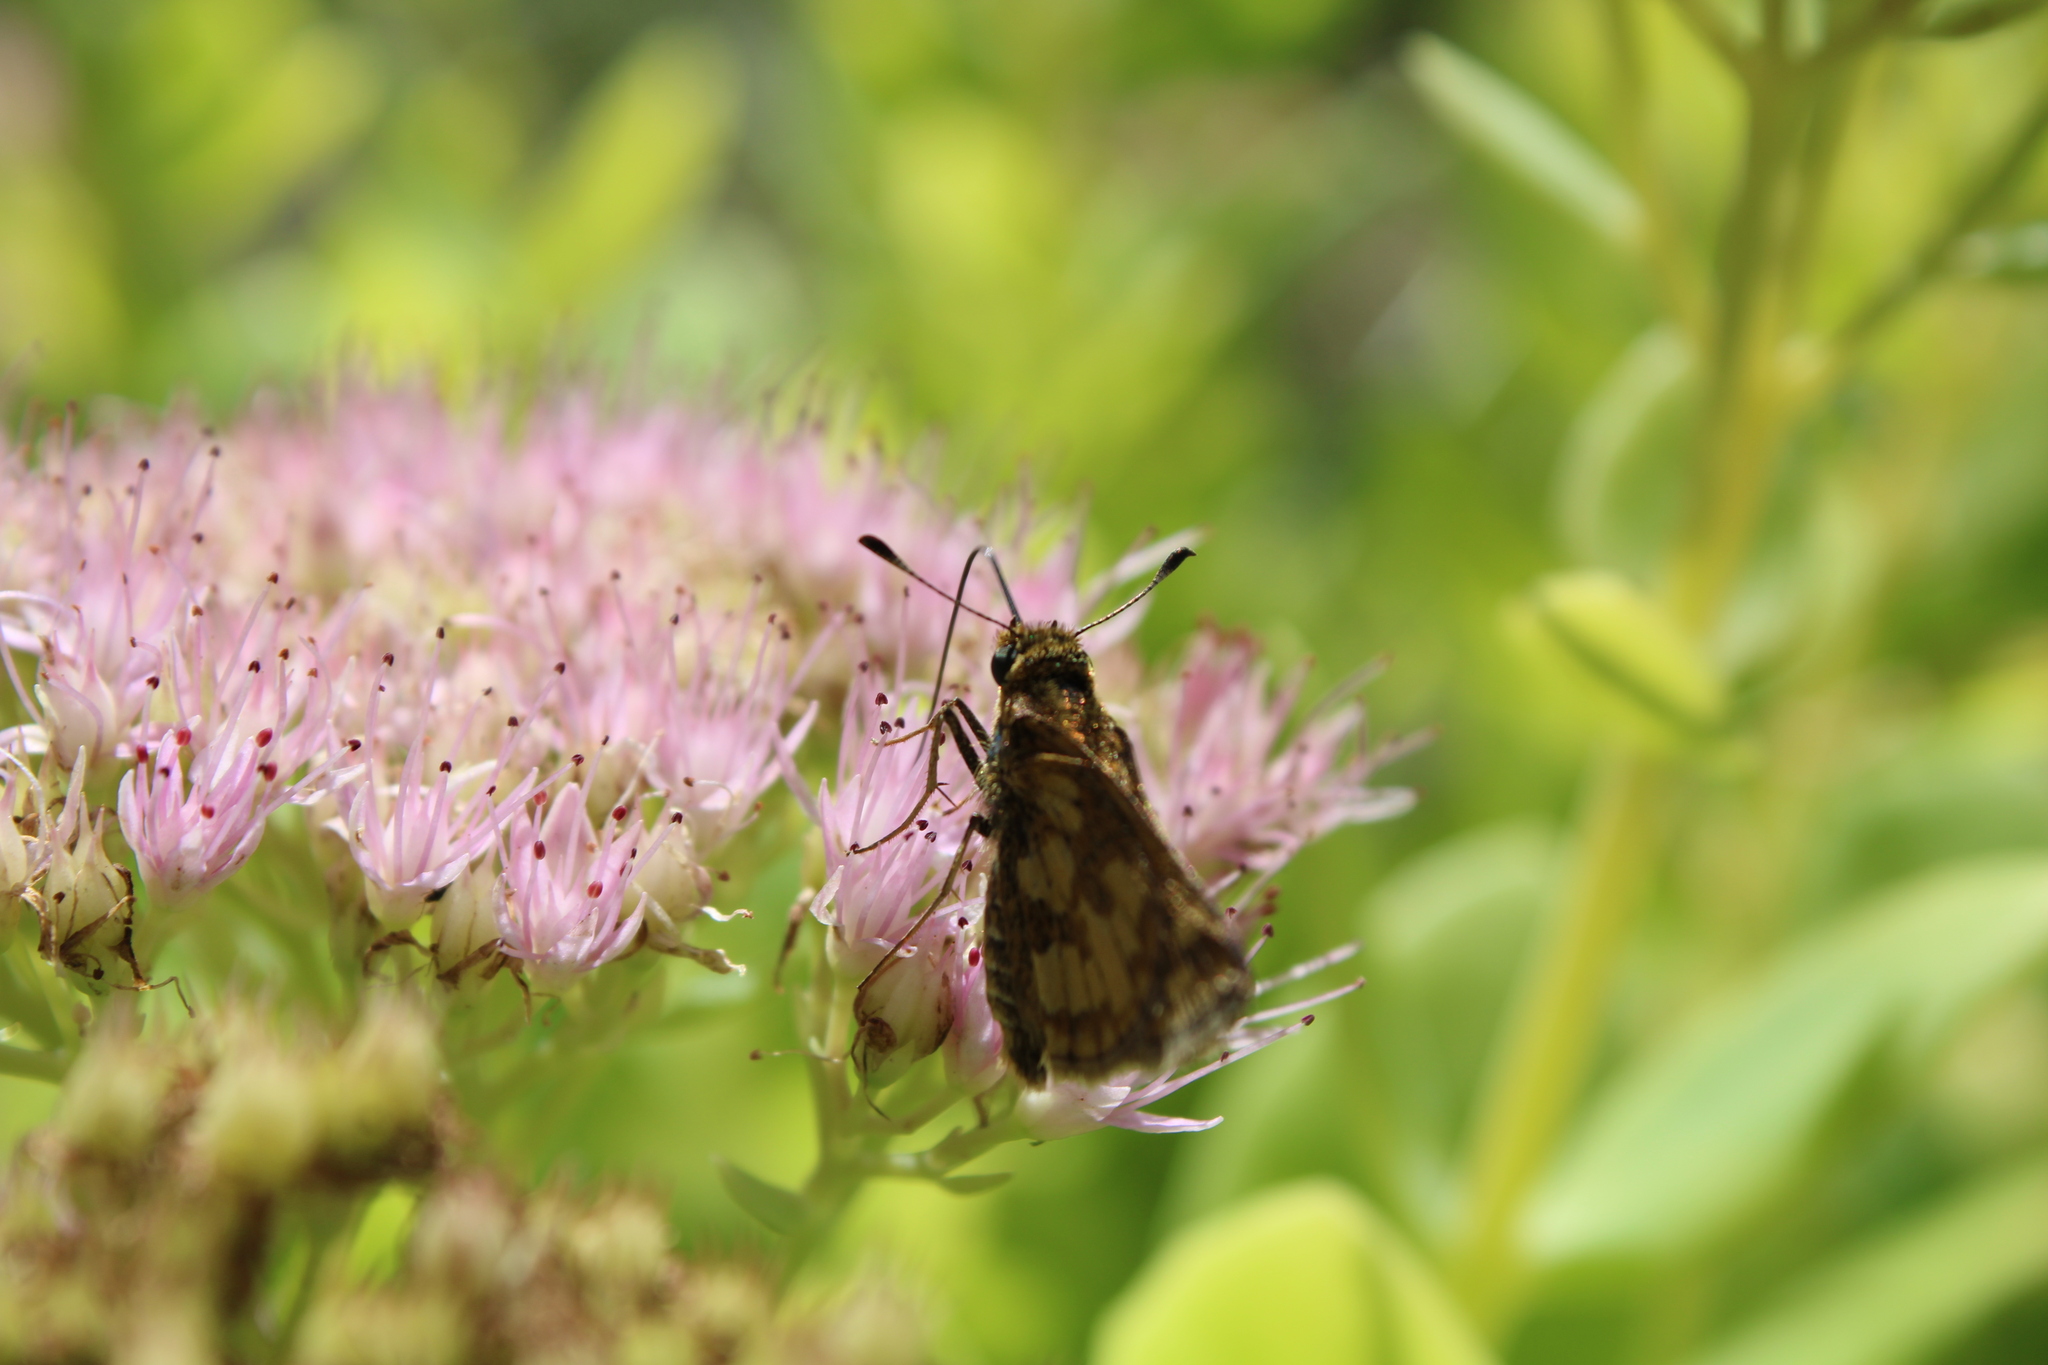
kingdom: Animalia
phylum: Arthropoda
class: Insecta
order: Lepidoptera
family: Hesperiidae
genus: Polites
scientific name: Polites coras
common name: Peck's skipper
